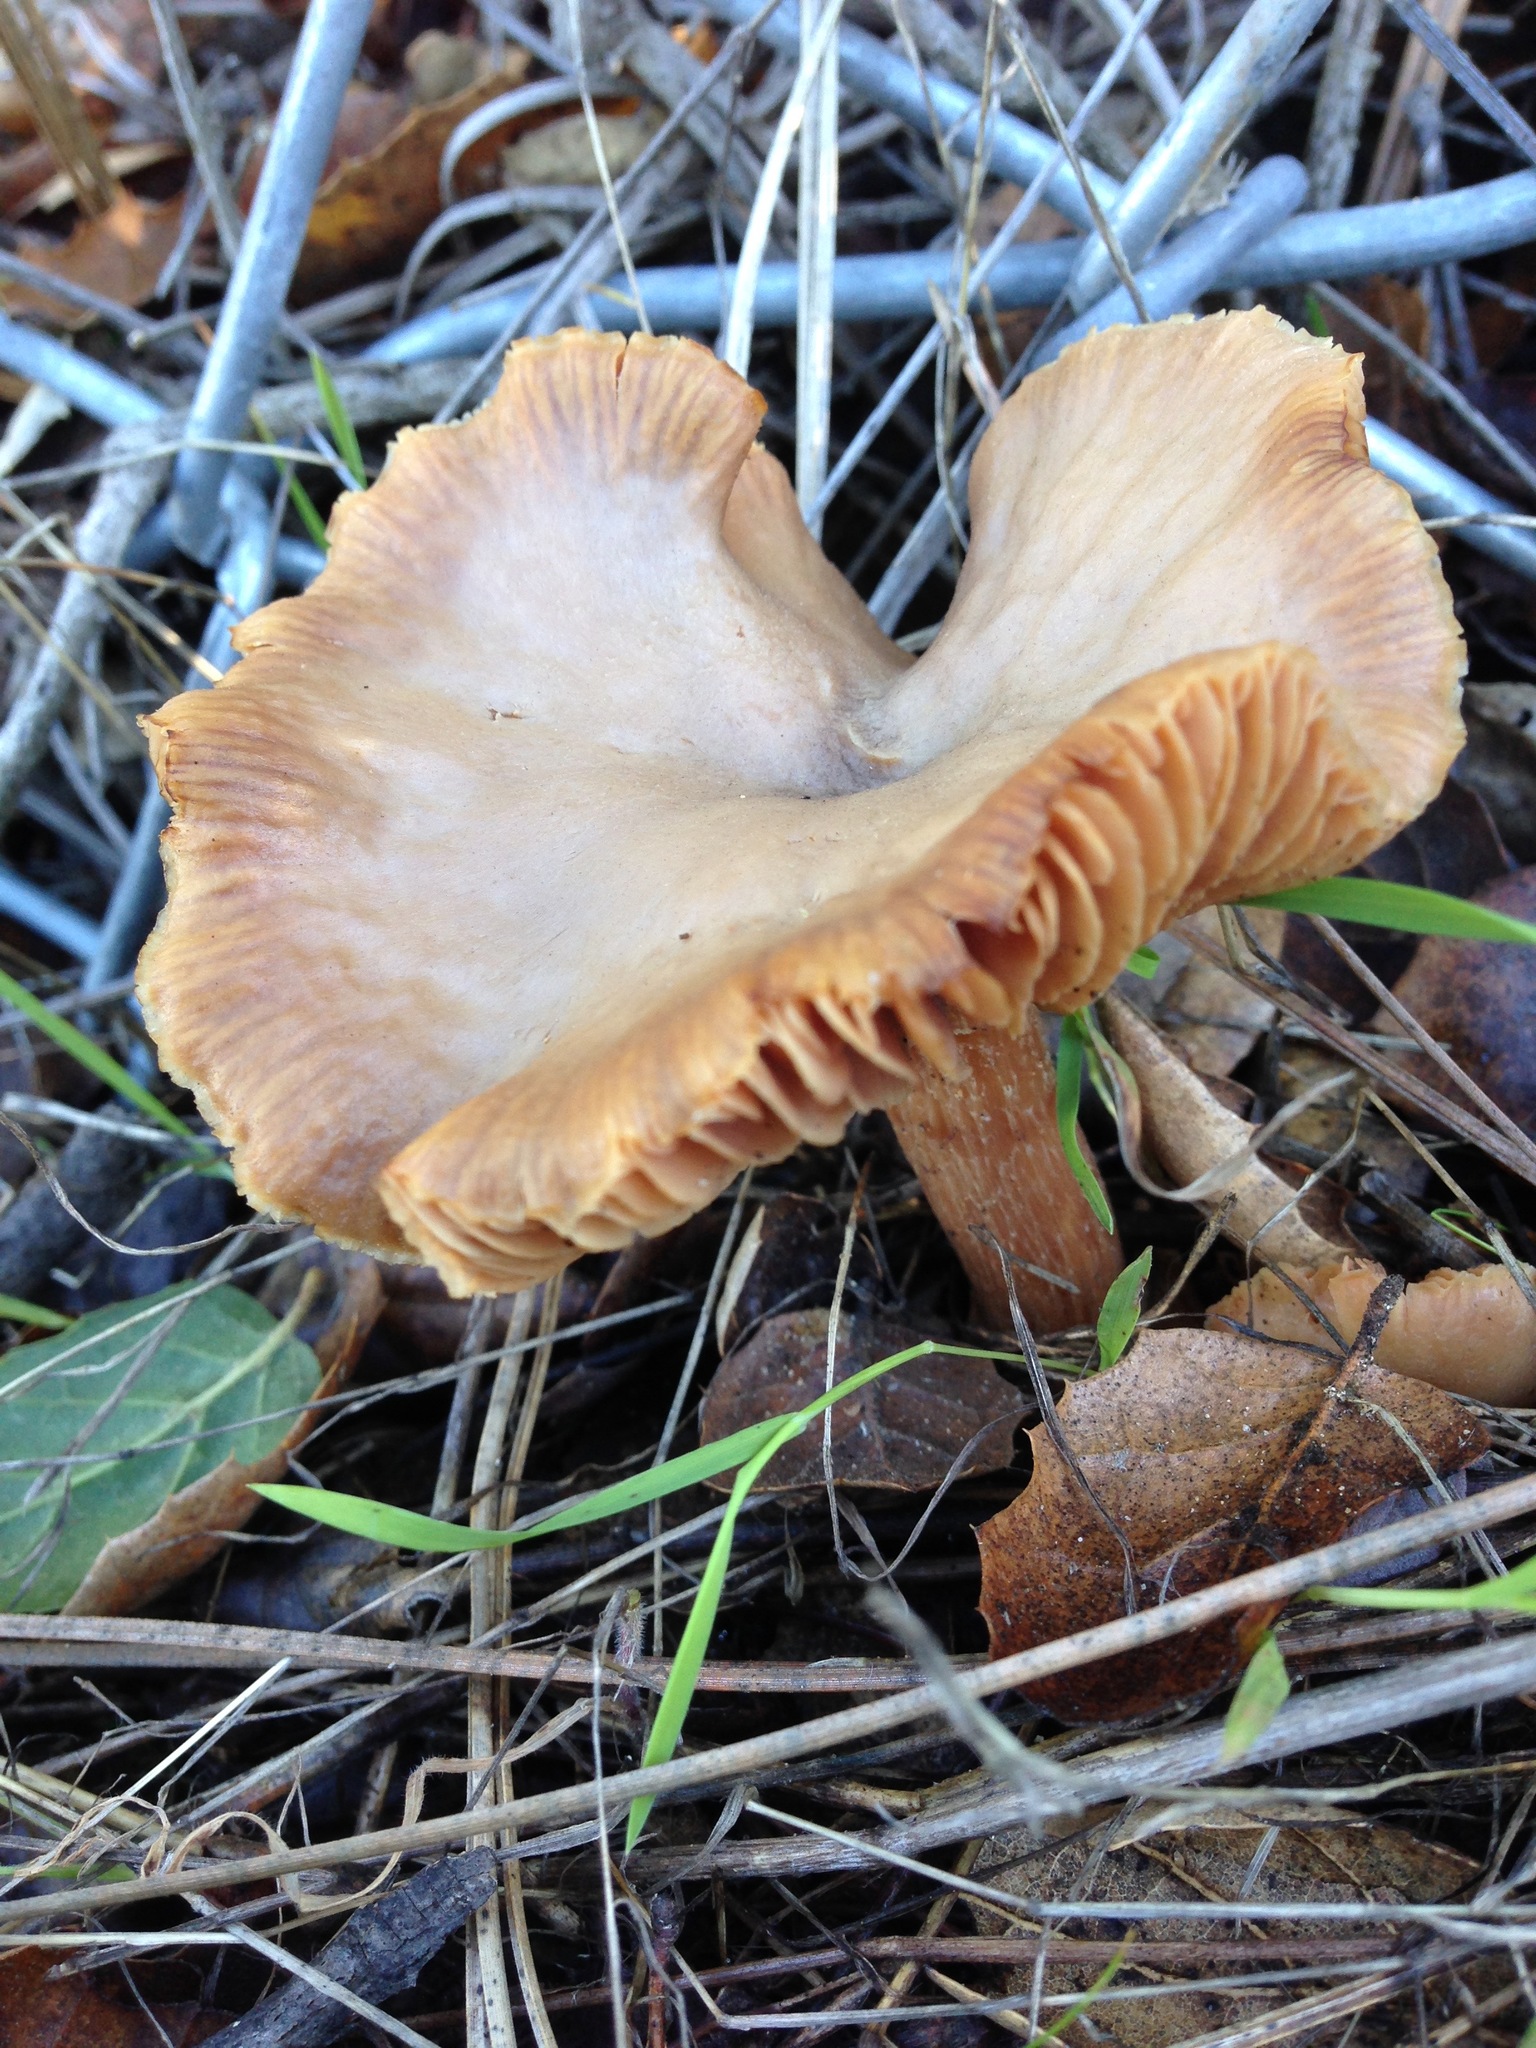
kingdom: Fungi
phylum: Basidiomycota
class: Agaricomycetes
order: Agaricales
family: Hydnangiaceae
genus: Laccaria
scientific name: Laccaria amethysteo-occidentalis
